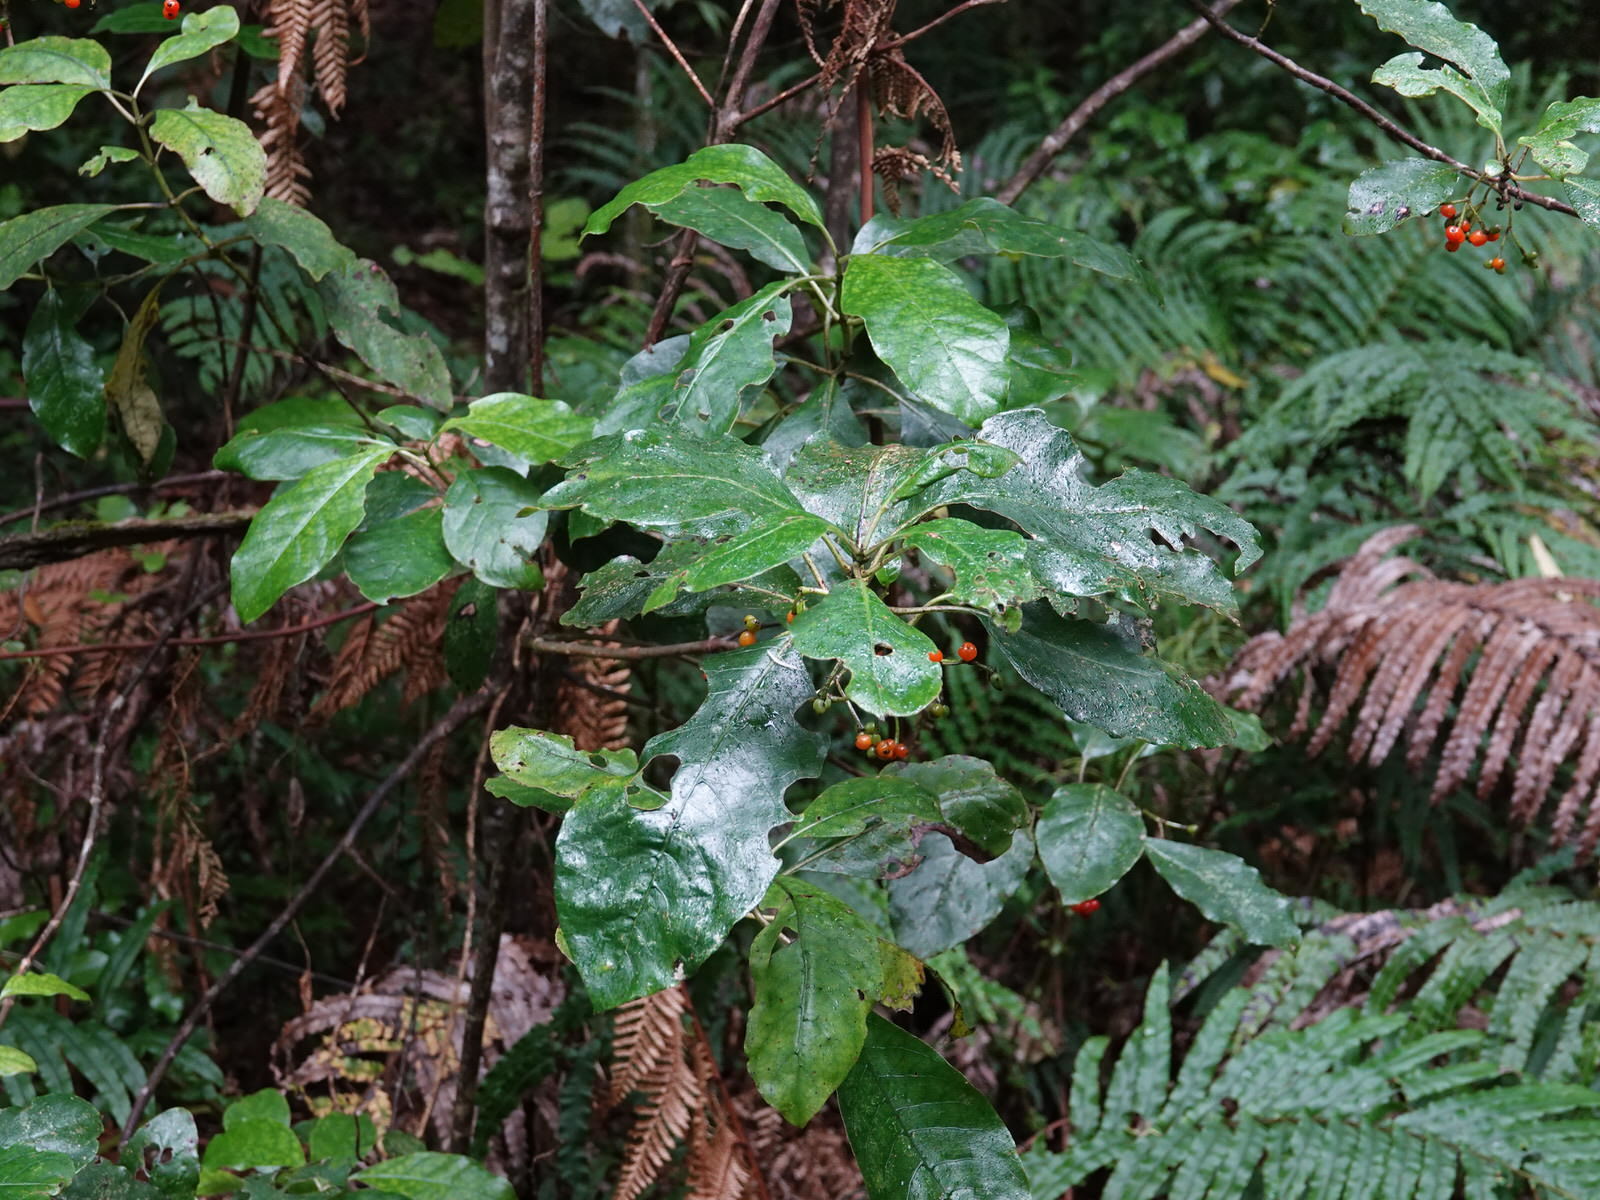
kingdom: Plantae
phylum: Tracheophyta
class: Magnoliopsida
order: Gentianales
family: Rubiaceae
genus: Coprosma
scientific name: Coprosma autumnalis
